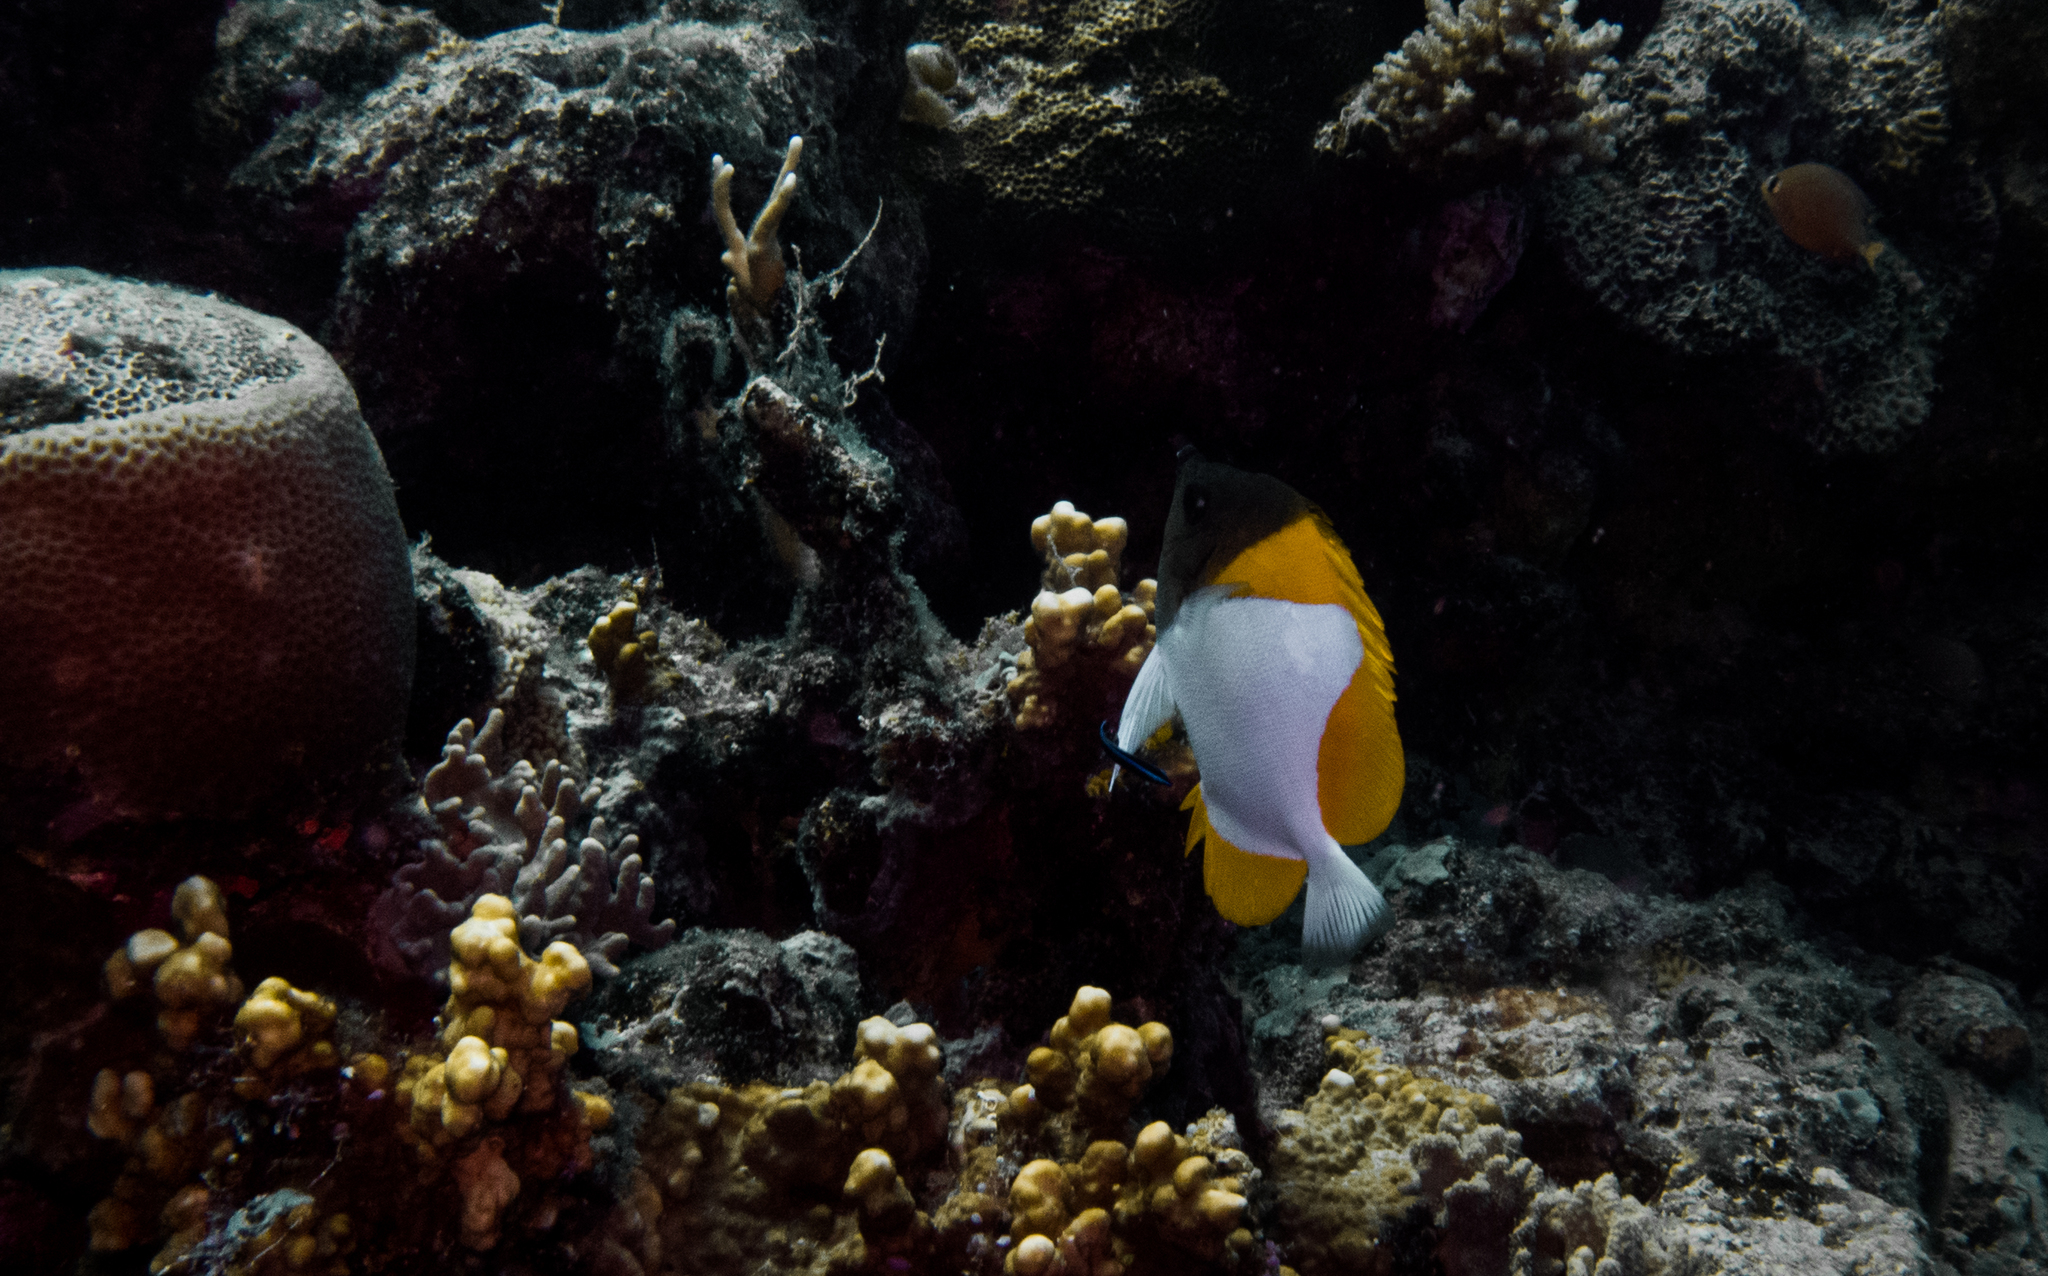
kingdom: Animalia
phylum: Chordata
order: Perciformes
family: Chaetodontidae
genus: Hemitaurichthys
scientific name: Hemitaurichthys polylepis
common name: Brushytoothed butterflyfish
